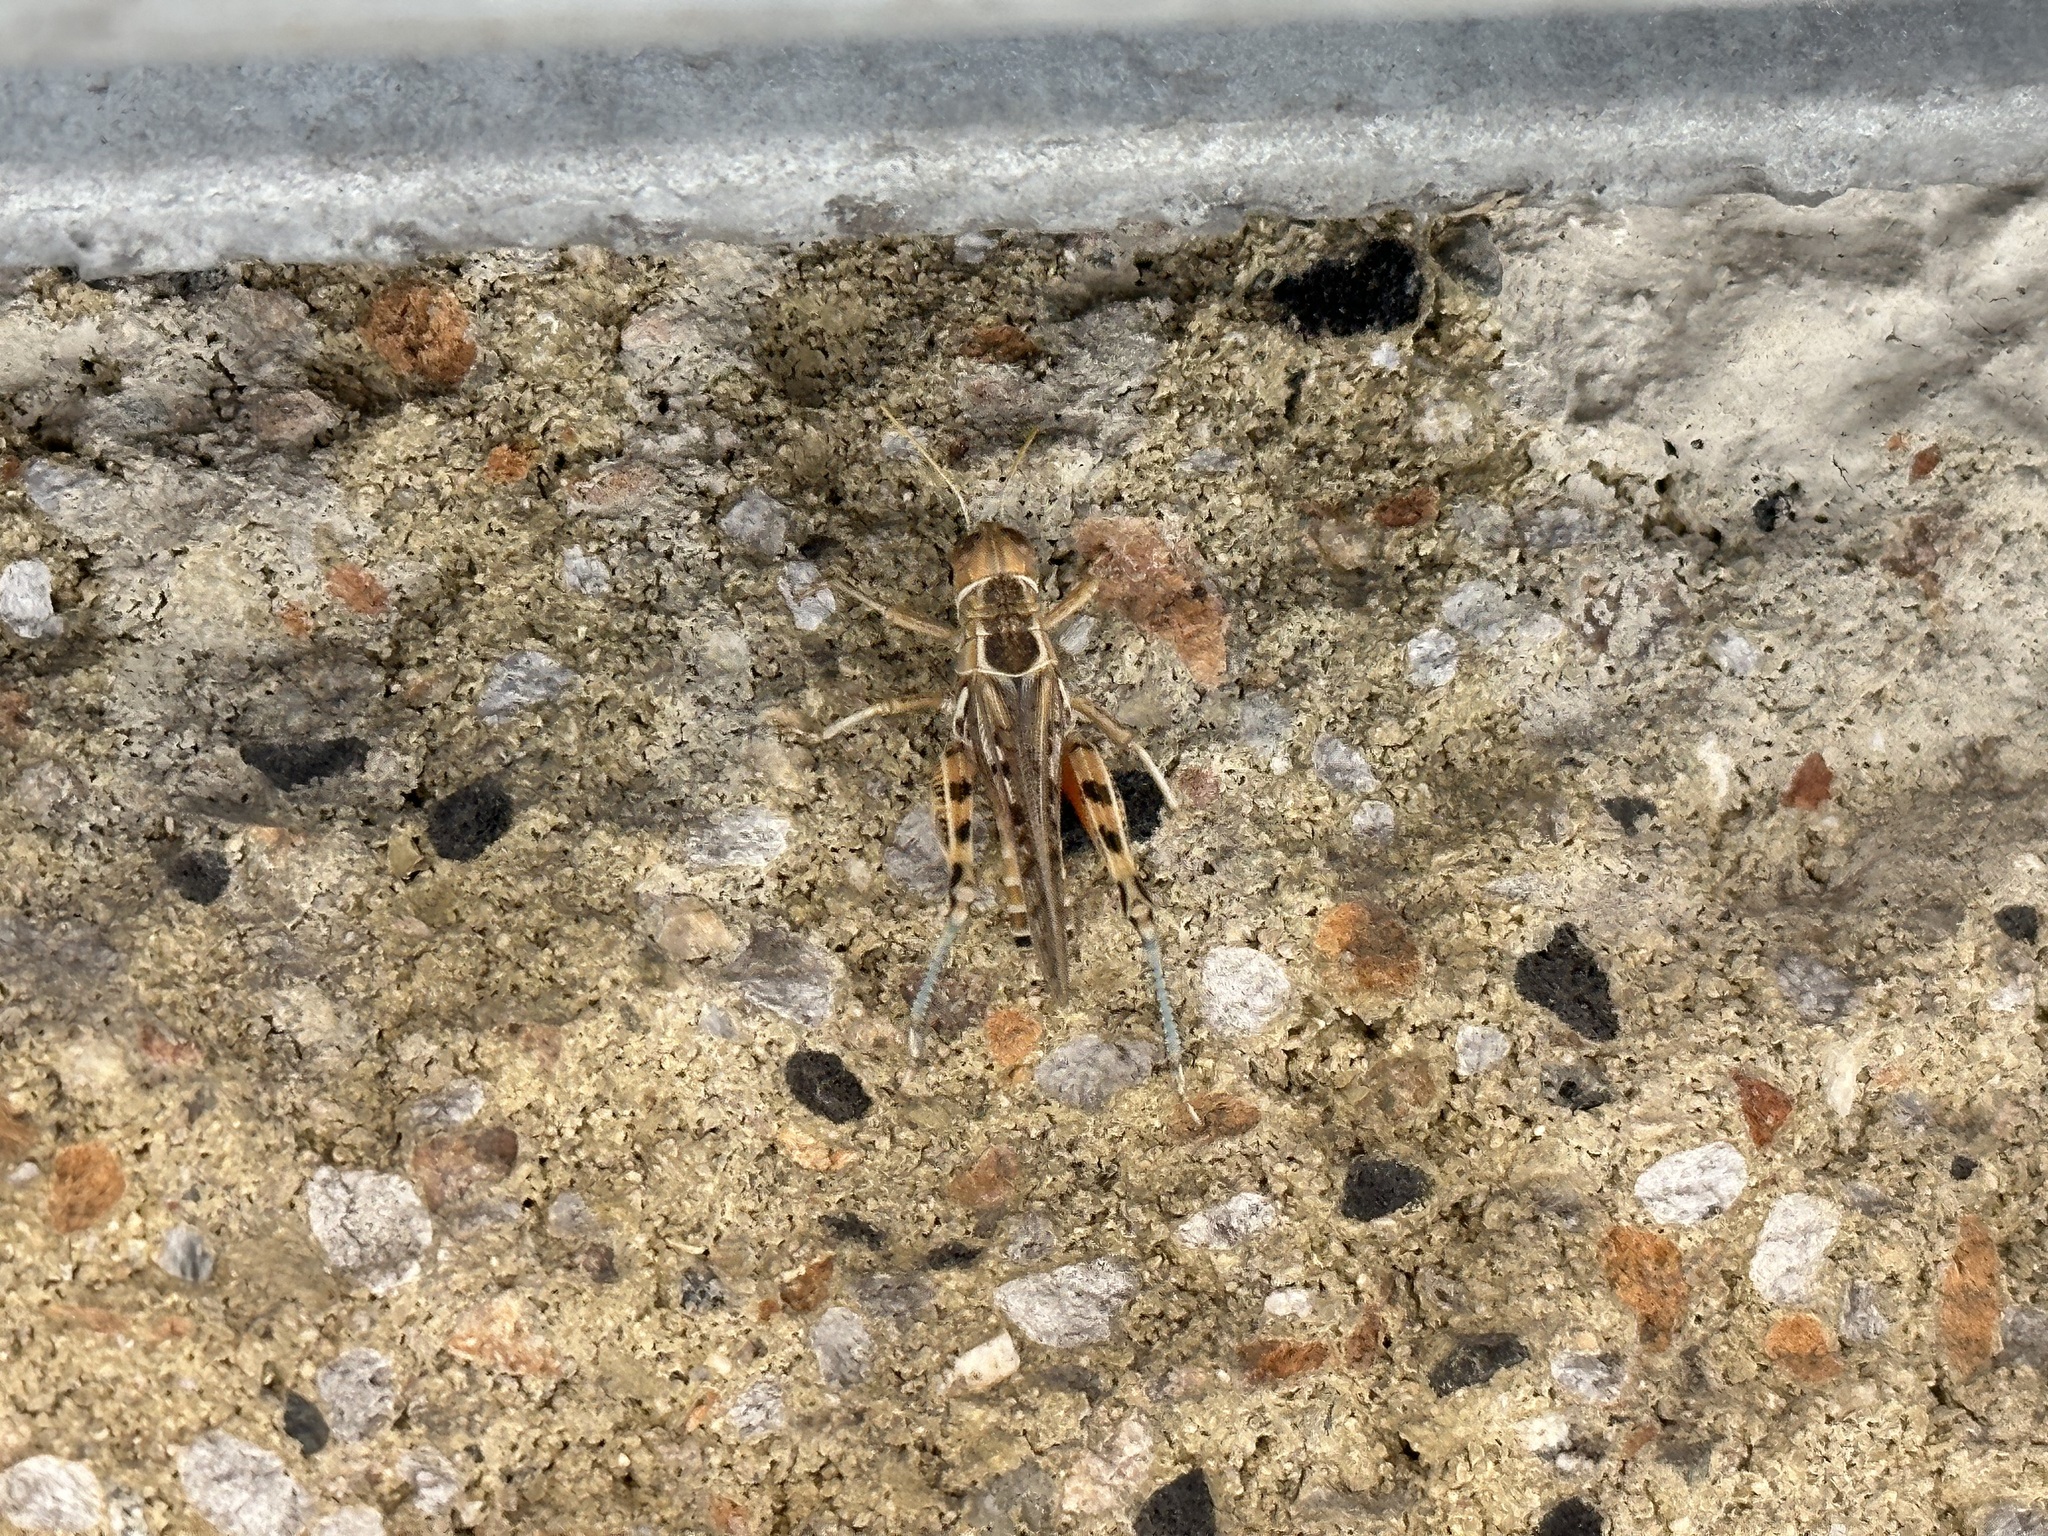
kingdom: Animalia
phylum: Arthropoda
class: Insecta
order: Orthoptera
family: Acrididae
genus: Oedaleonotus
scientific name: Oedaleonotus enigma
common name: Valley grasshopper
